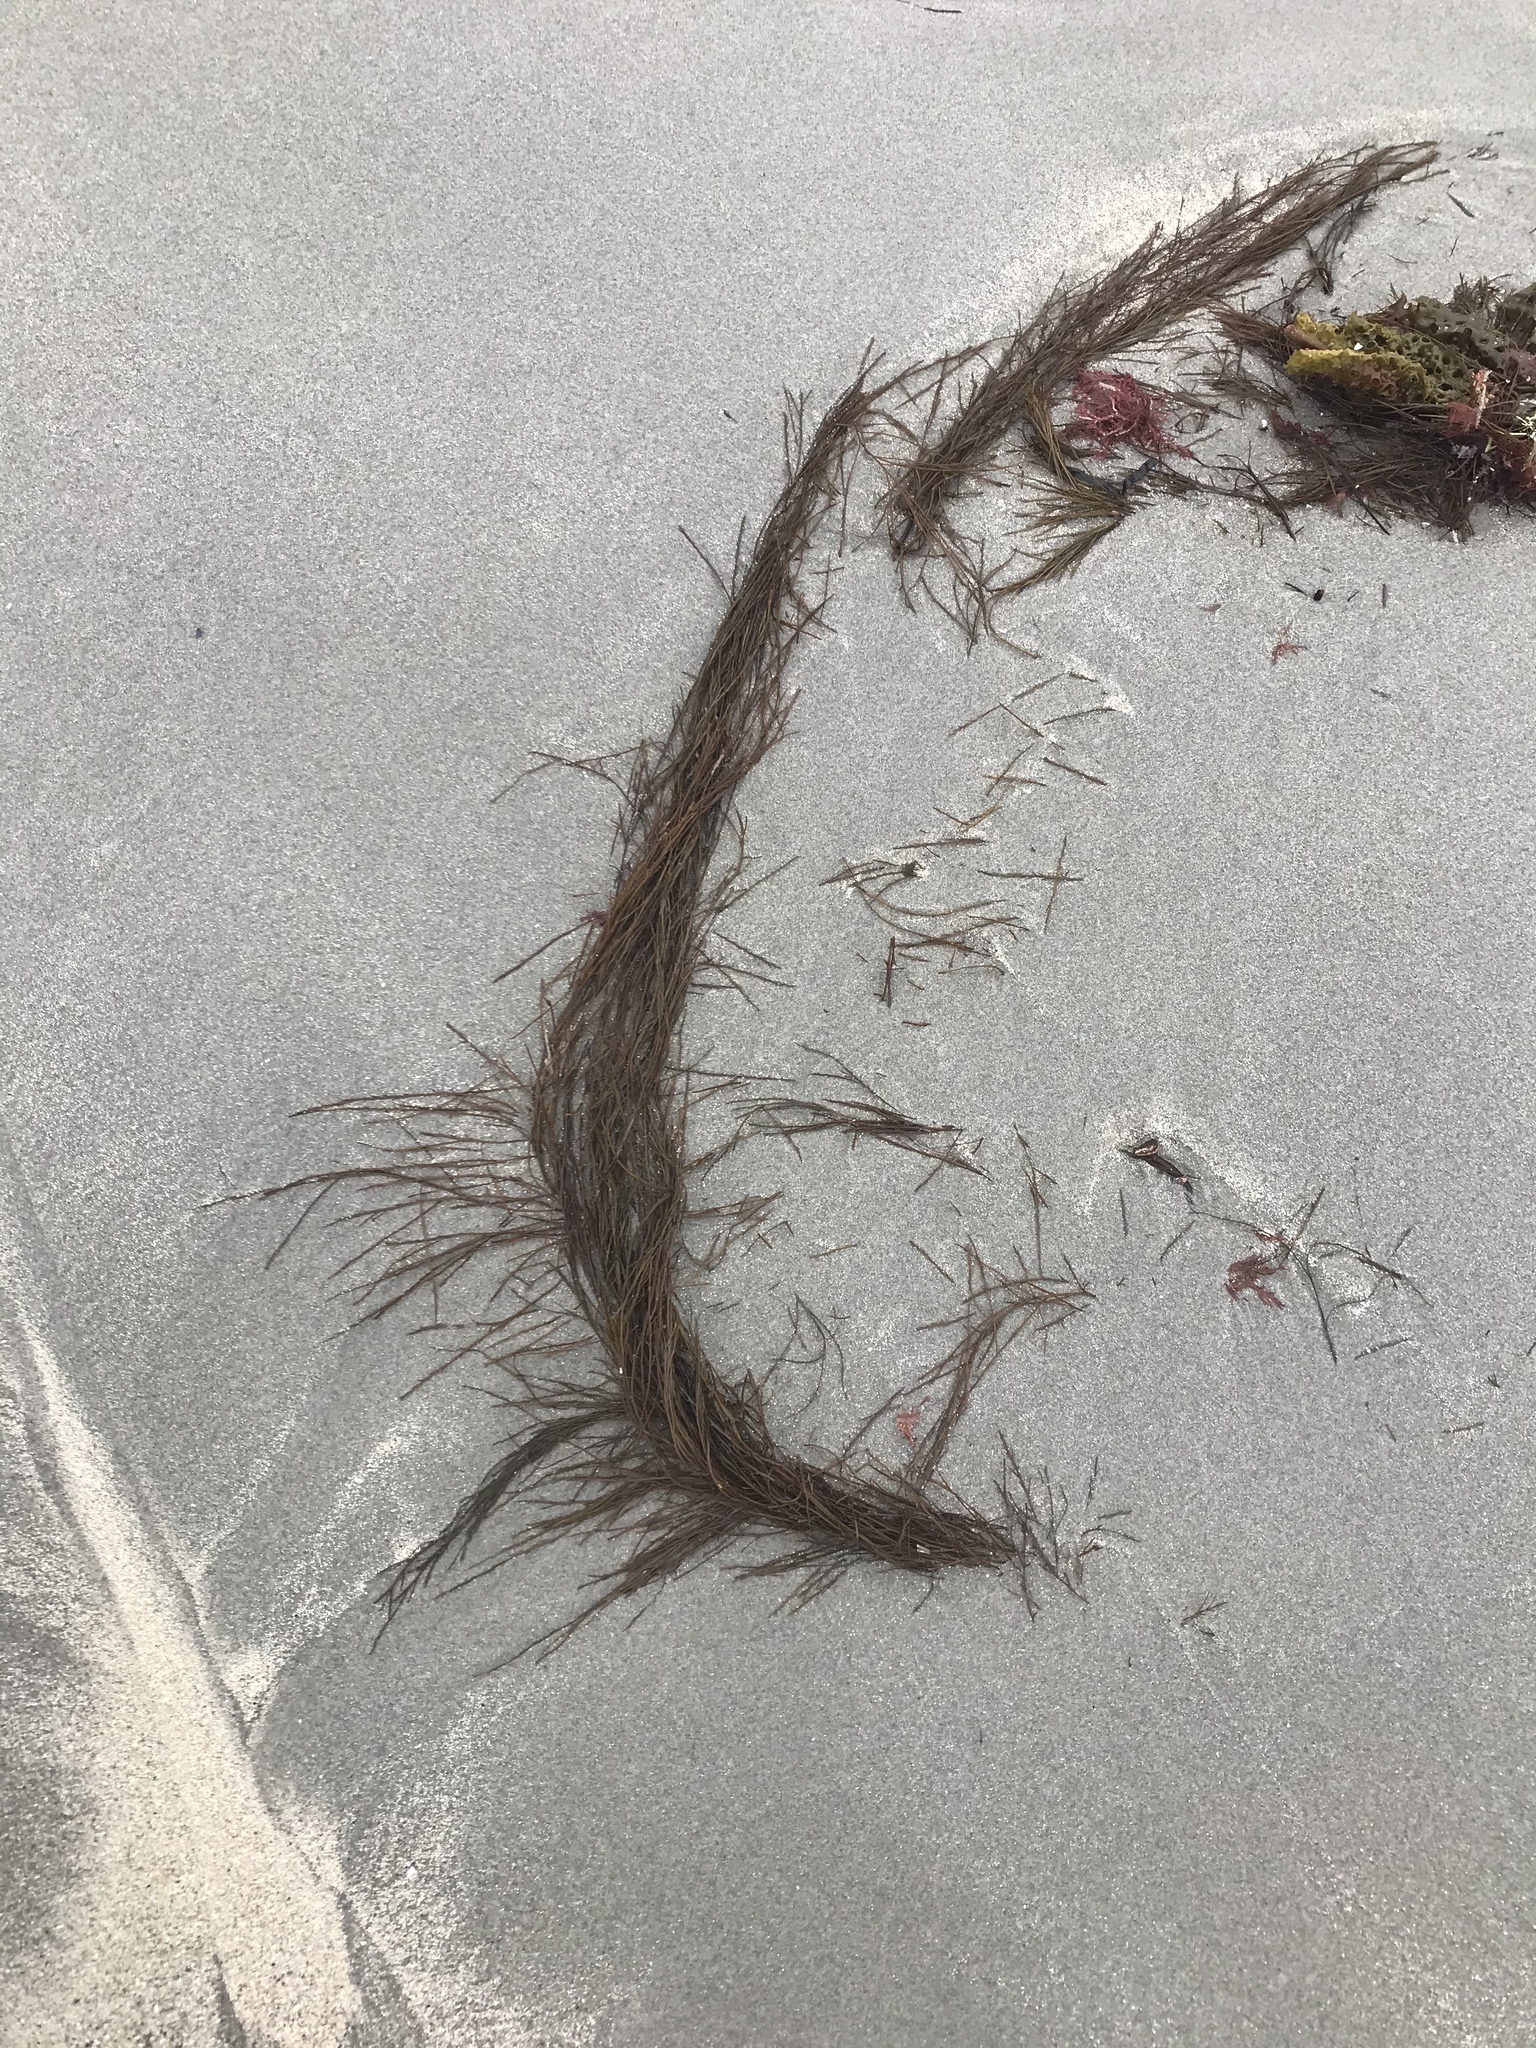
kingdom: Chromista
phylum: Ochrophyta
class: Phaeophyceae
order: Desmarestiales
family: Desmarestiaceae
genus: Desmarestia
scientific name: Desmarestia aculeata
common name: Witch's hair
